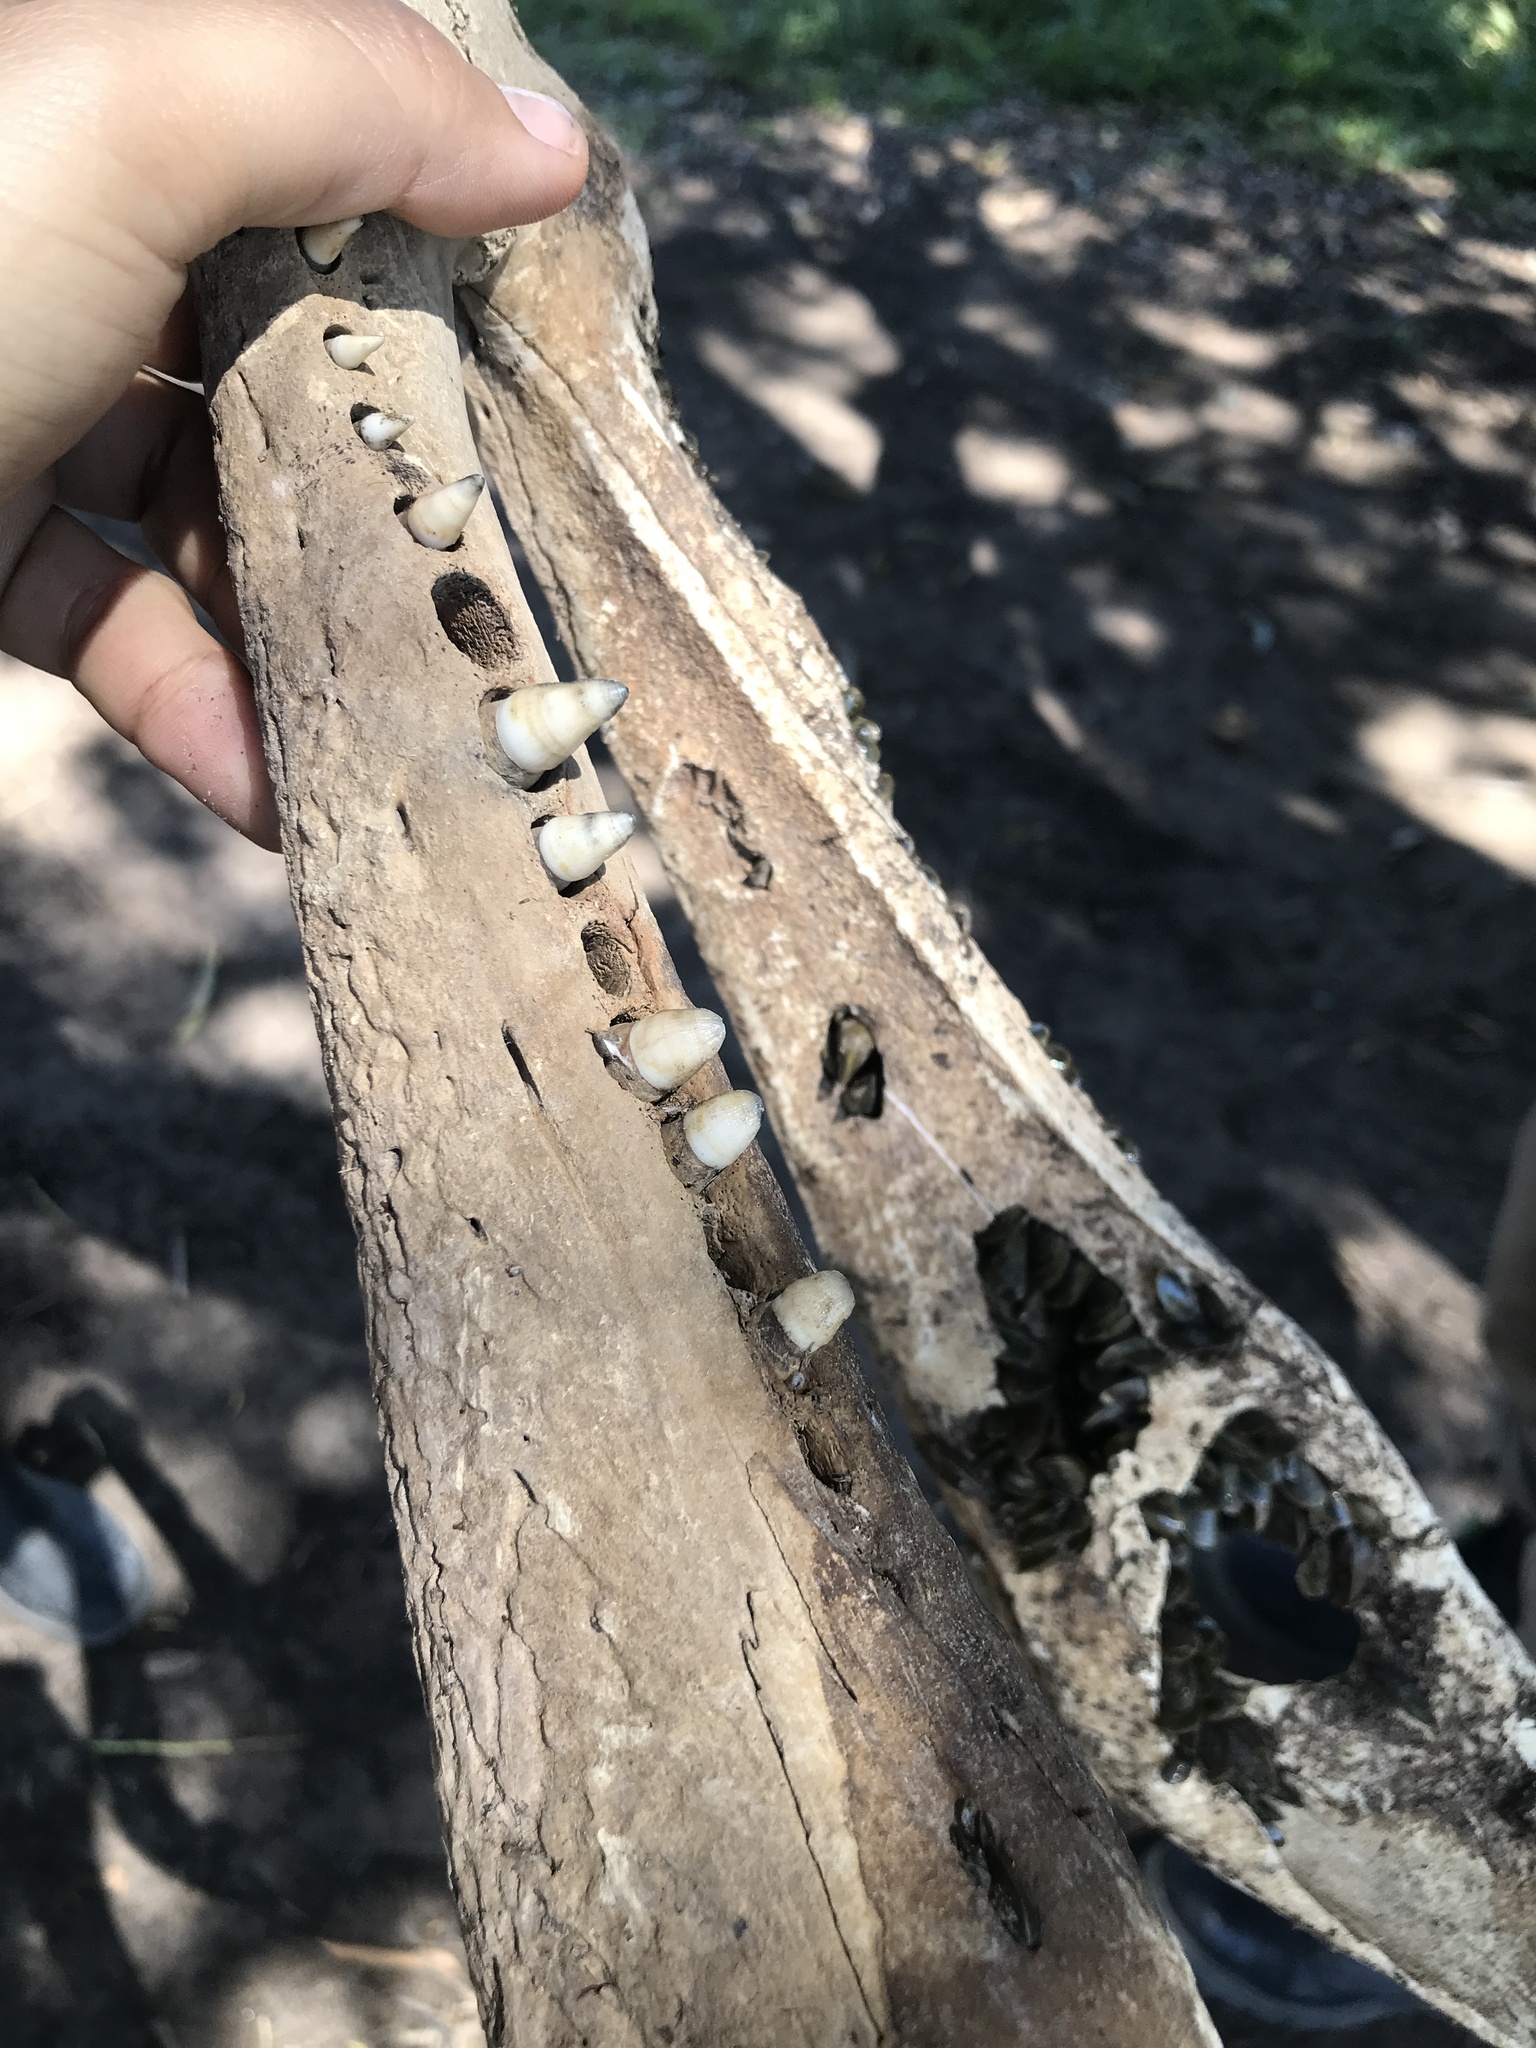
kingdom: Animalia
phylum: Chordata
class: Crocodylia
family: Alligatoridae
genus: Caiman
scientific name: Caiman yacare
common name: Yacare caiman
